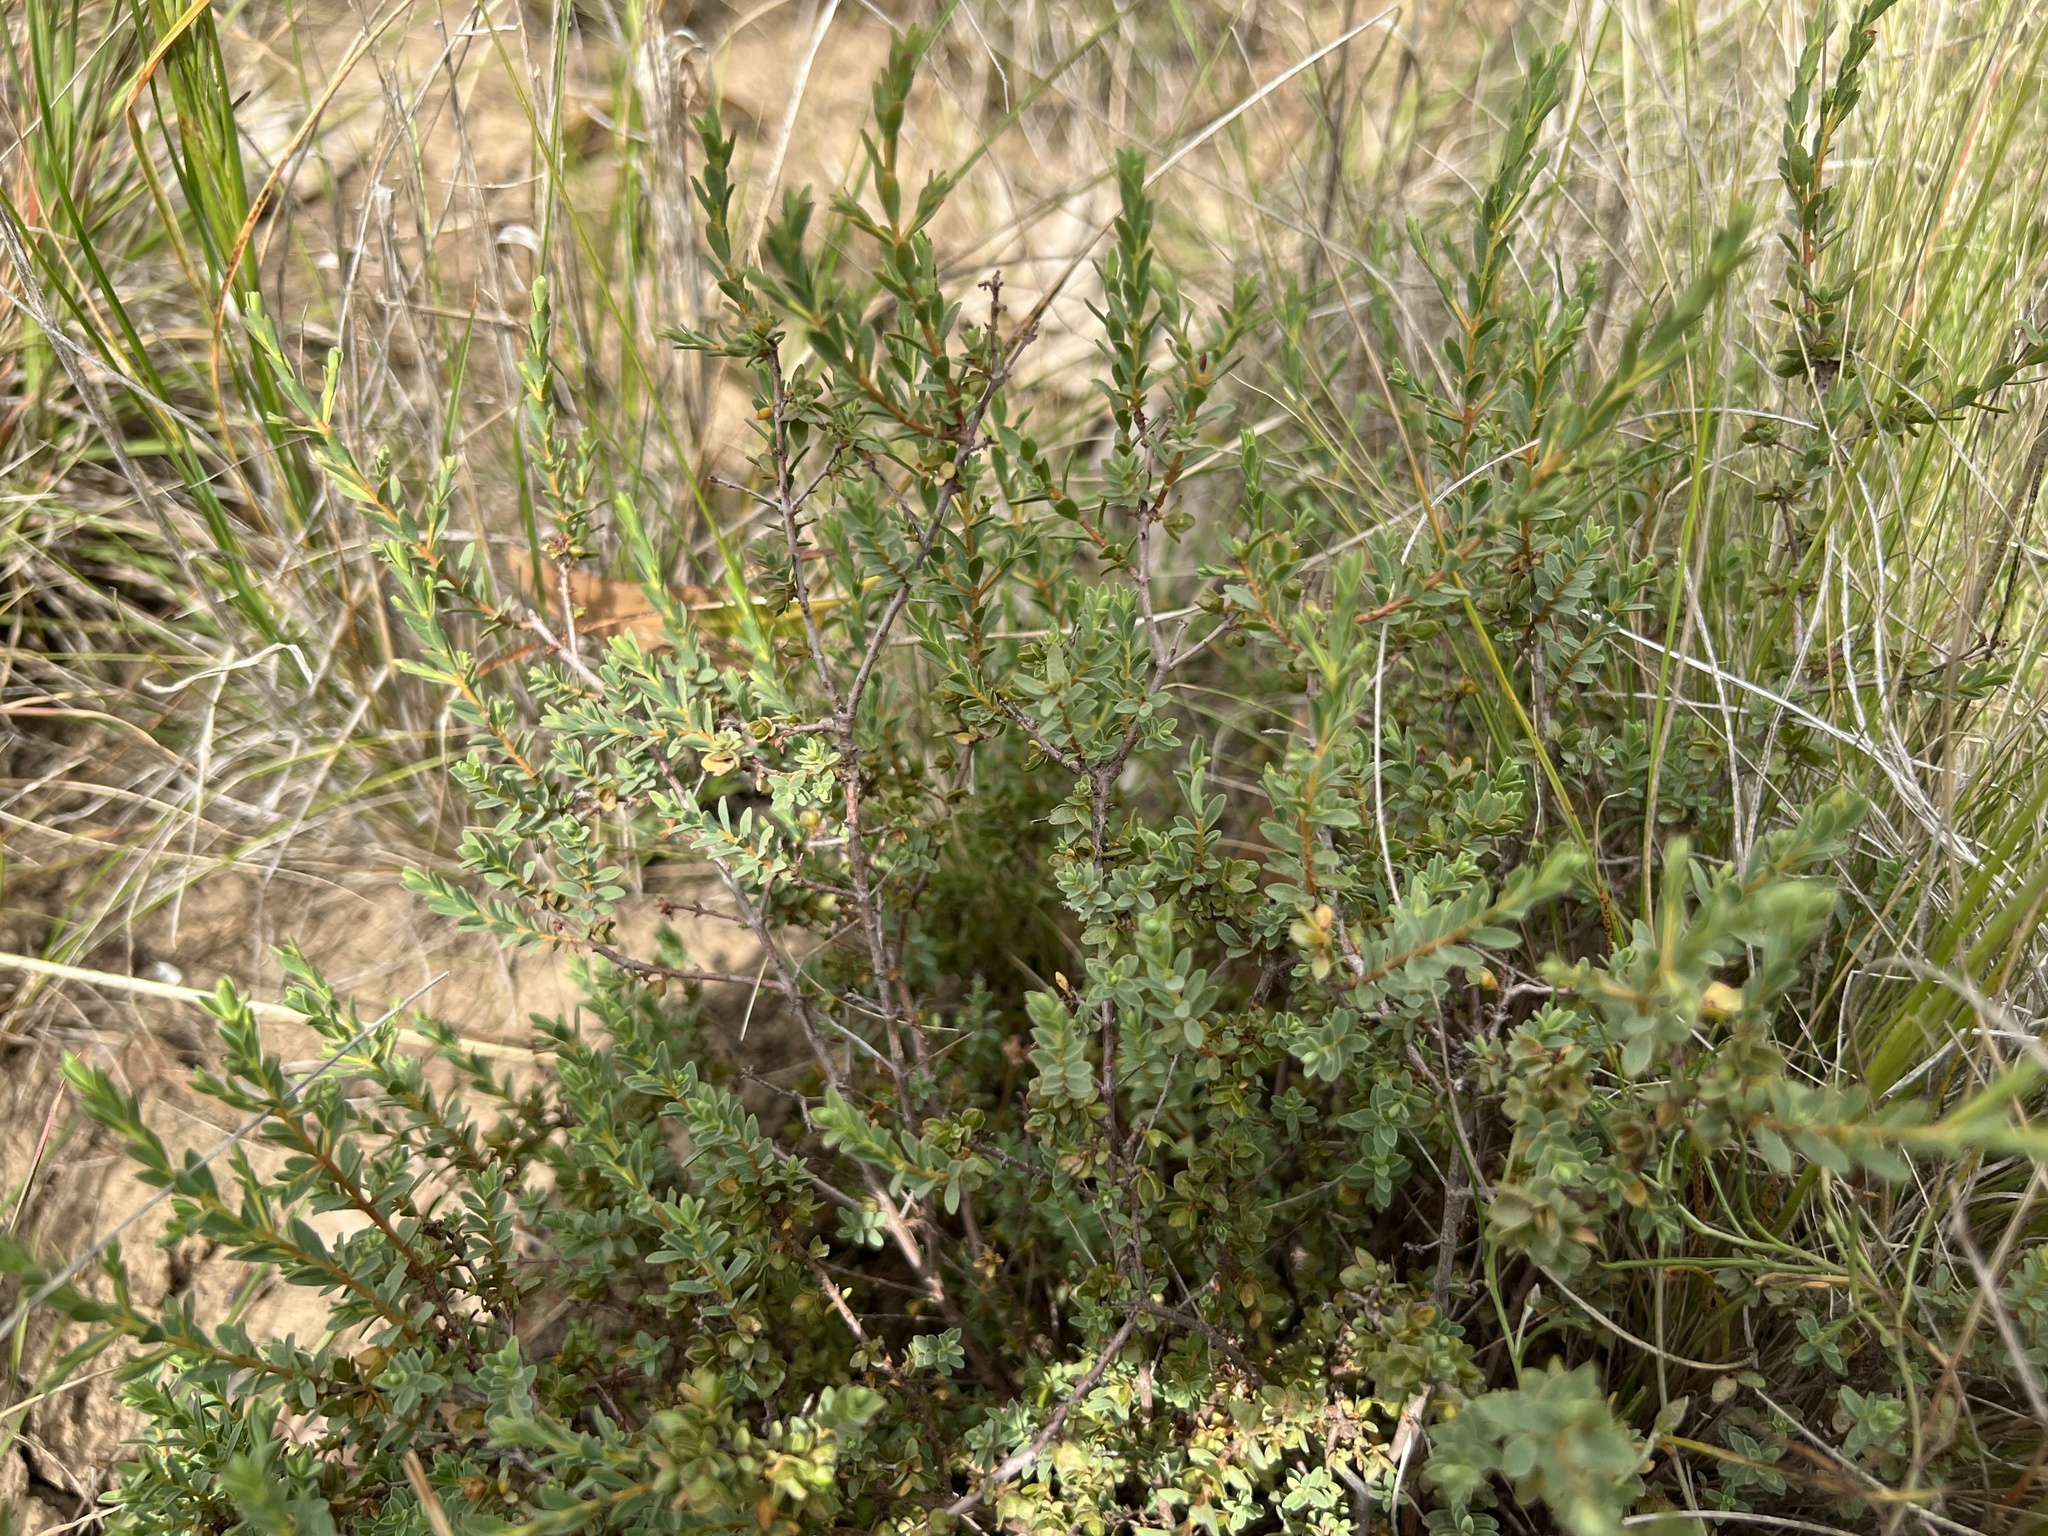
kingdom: Plantae
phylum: Tracheophyta
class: Magnoliopsida
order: Malvales
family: Thymelaeaceae
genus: Pimelea
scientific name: Pimelea spinescens
